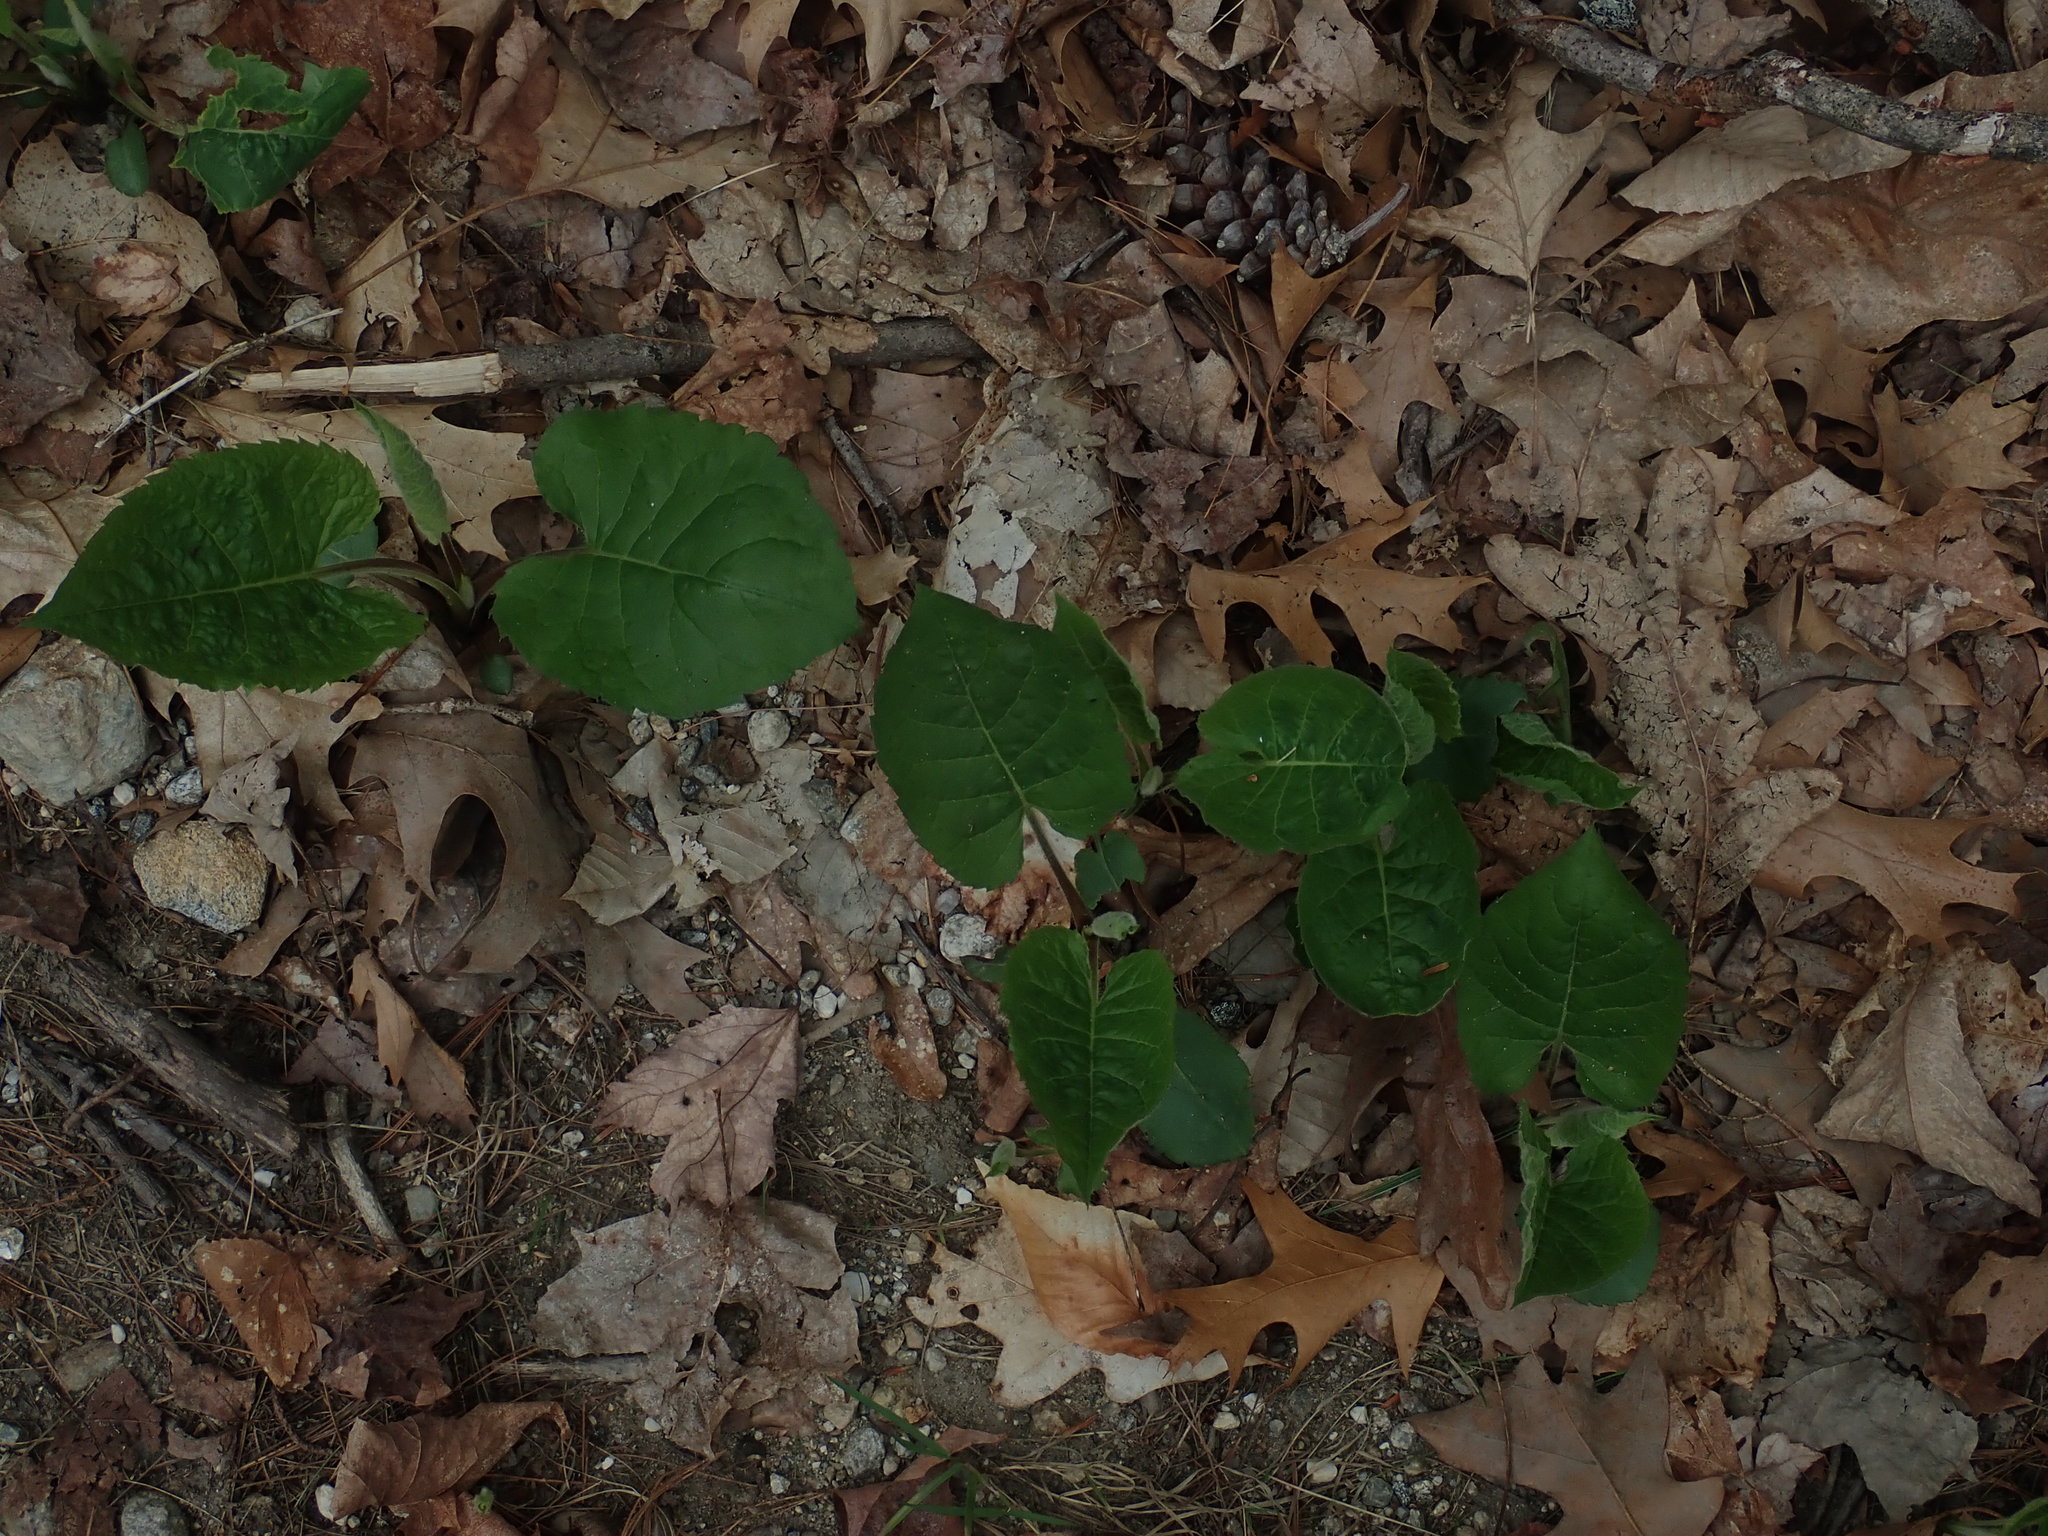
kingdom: Plantae
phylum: Tracheophyta
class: Magnoliopsida
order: Asterales
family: Asteraceae
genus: Eurybia
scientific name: Eurybia macrophylla
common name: Big-leaved aster
